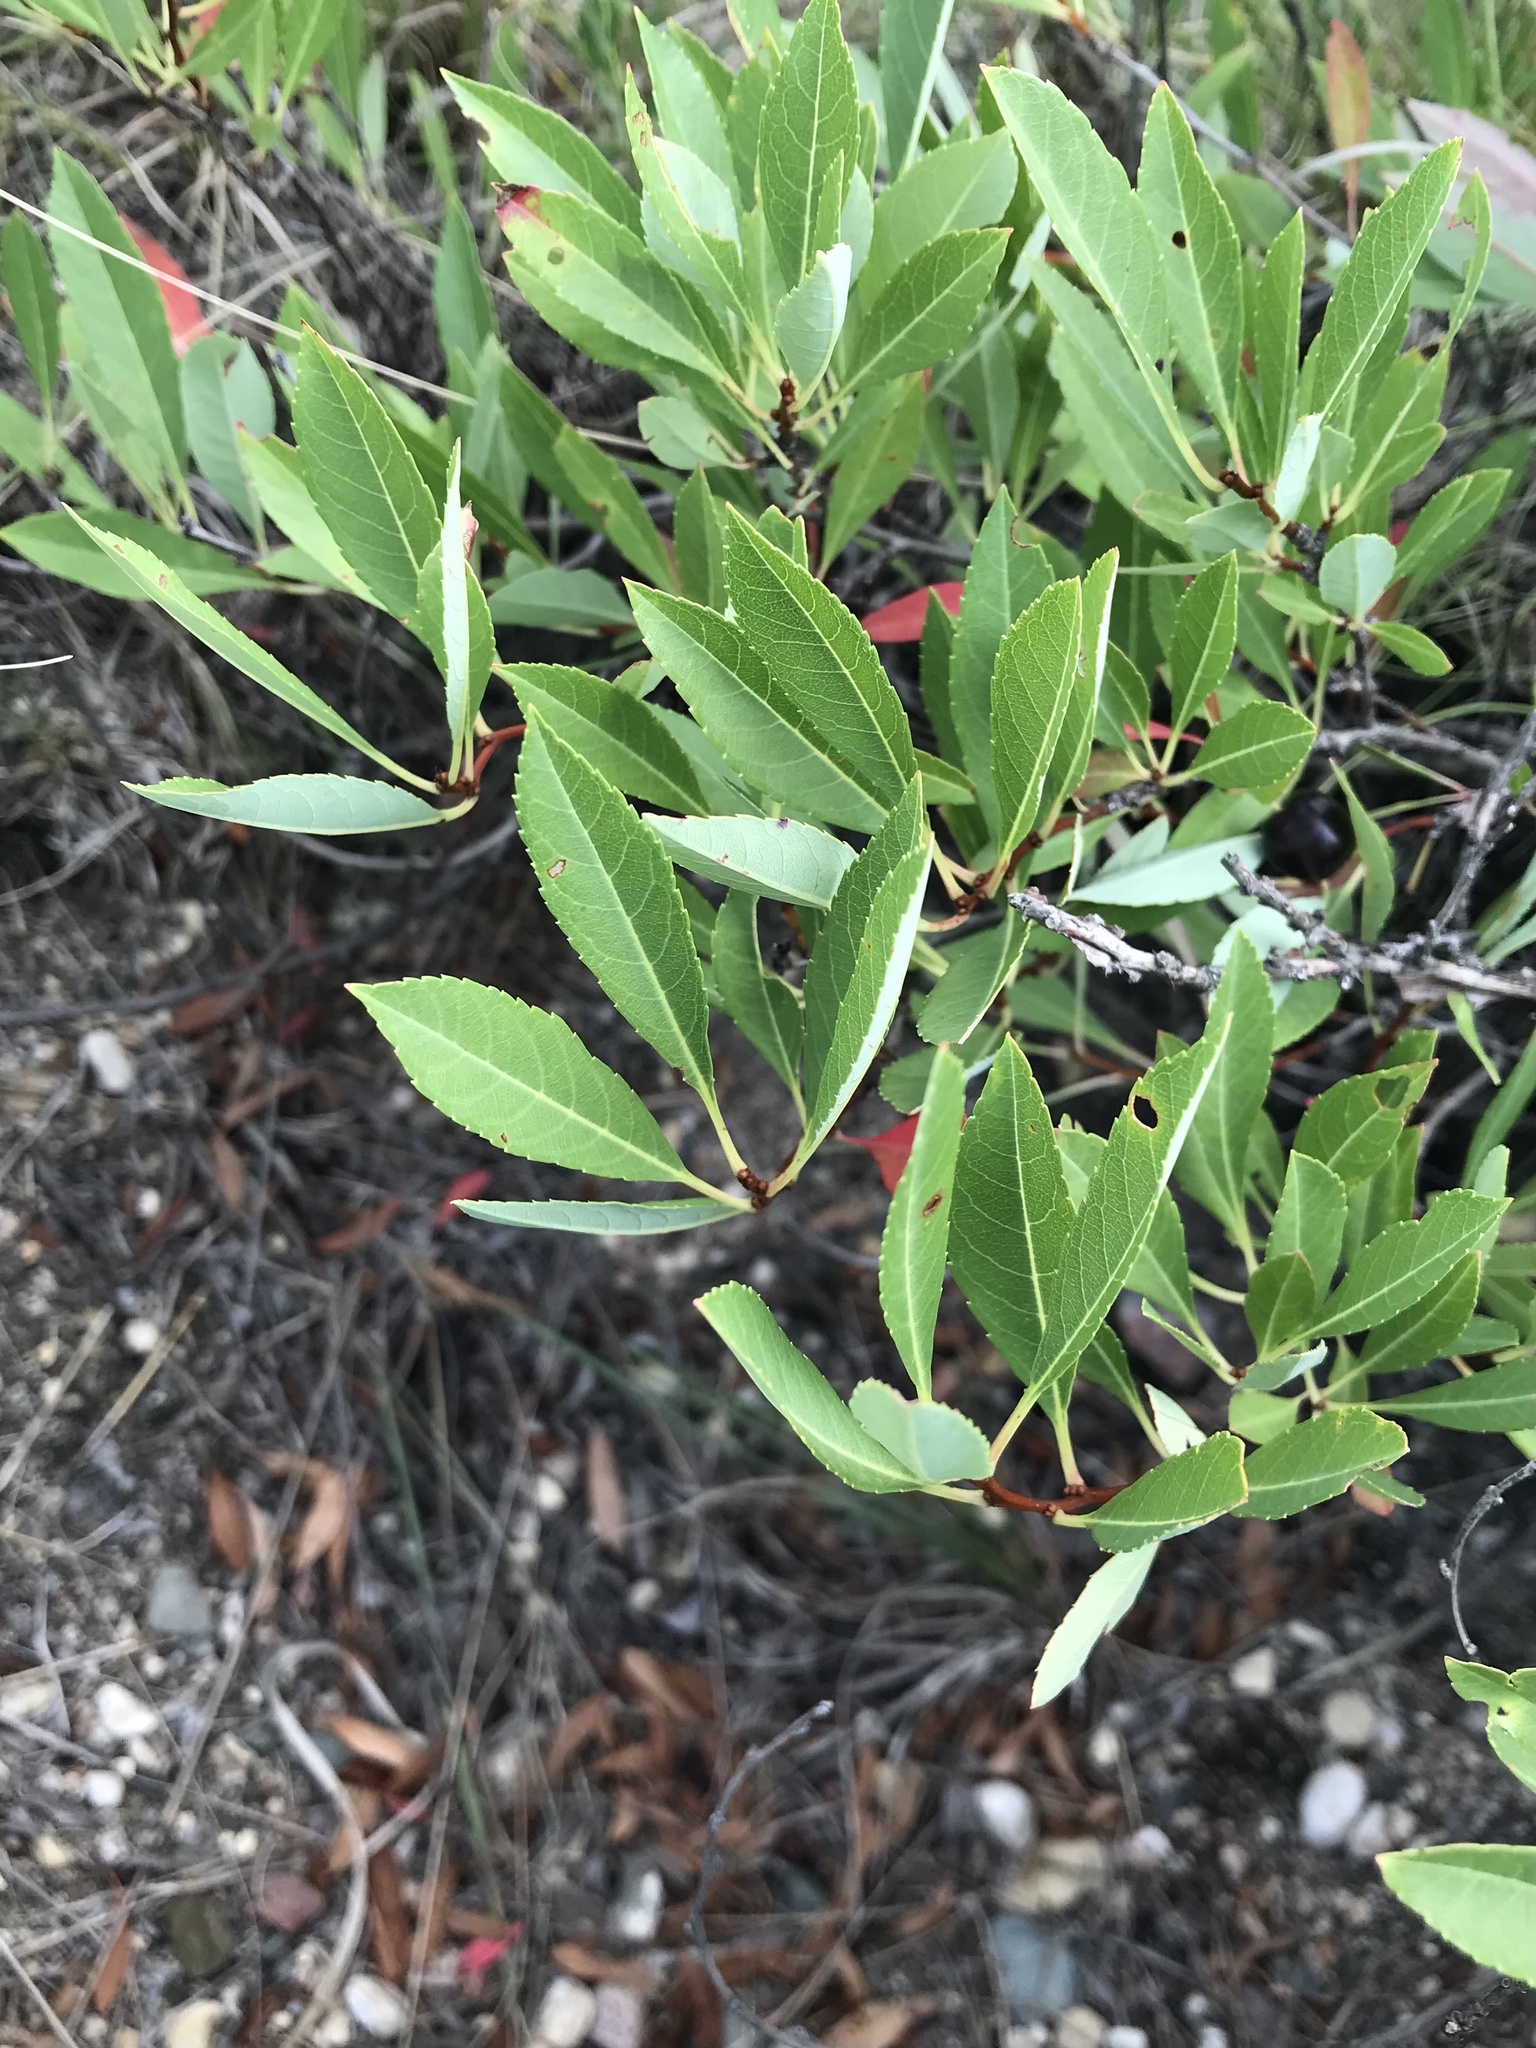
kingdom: Plantae
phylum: Tracheophyta
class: Magnoliopsida
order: Rosales
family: Rosaceae
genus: Prunus
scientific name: Prunus pumila
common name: Dwarf cherry
